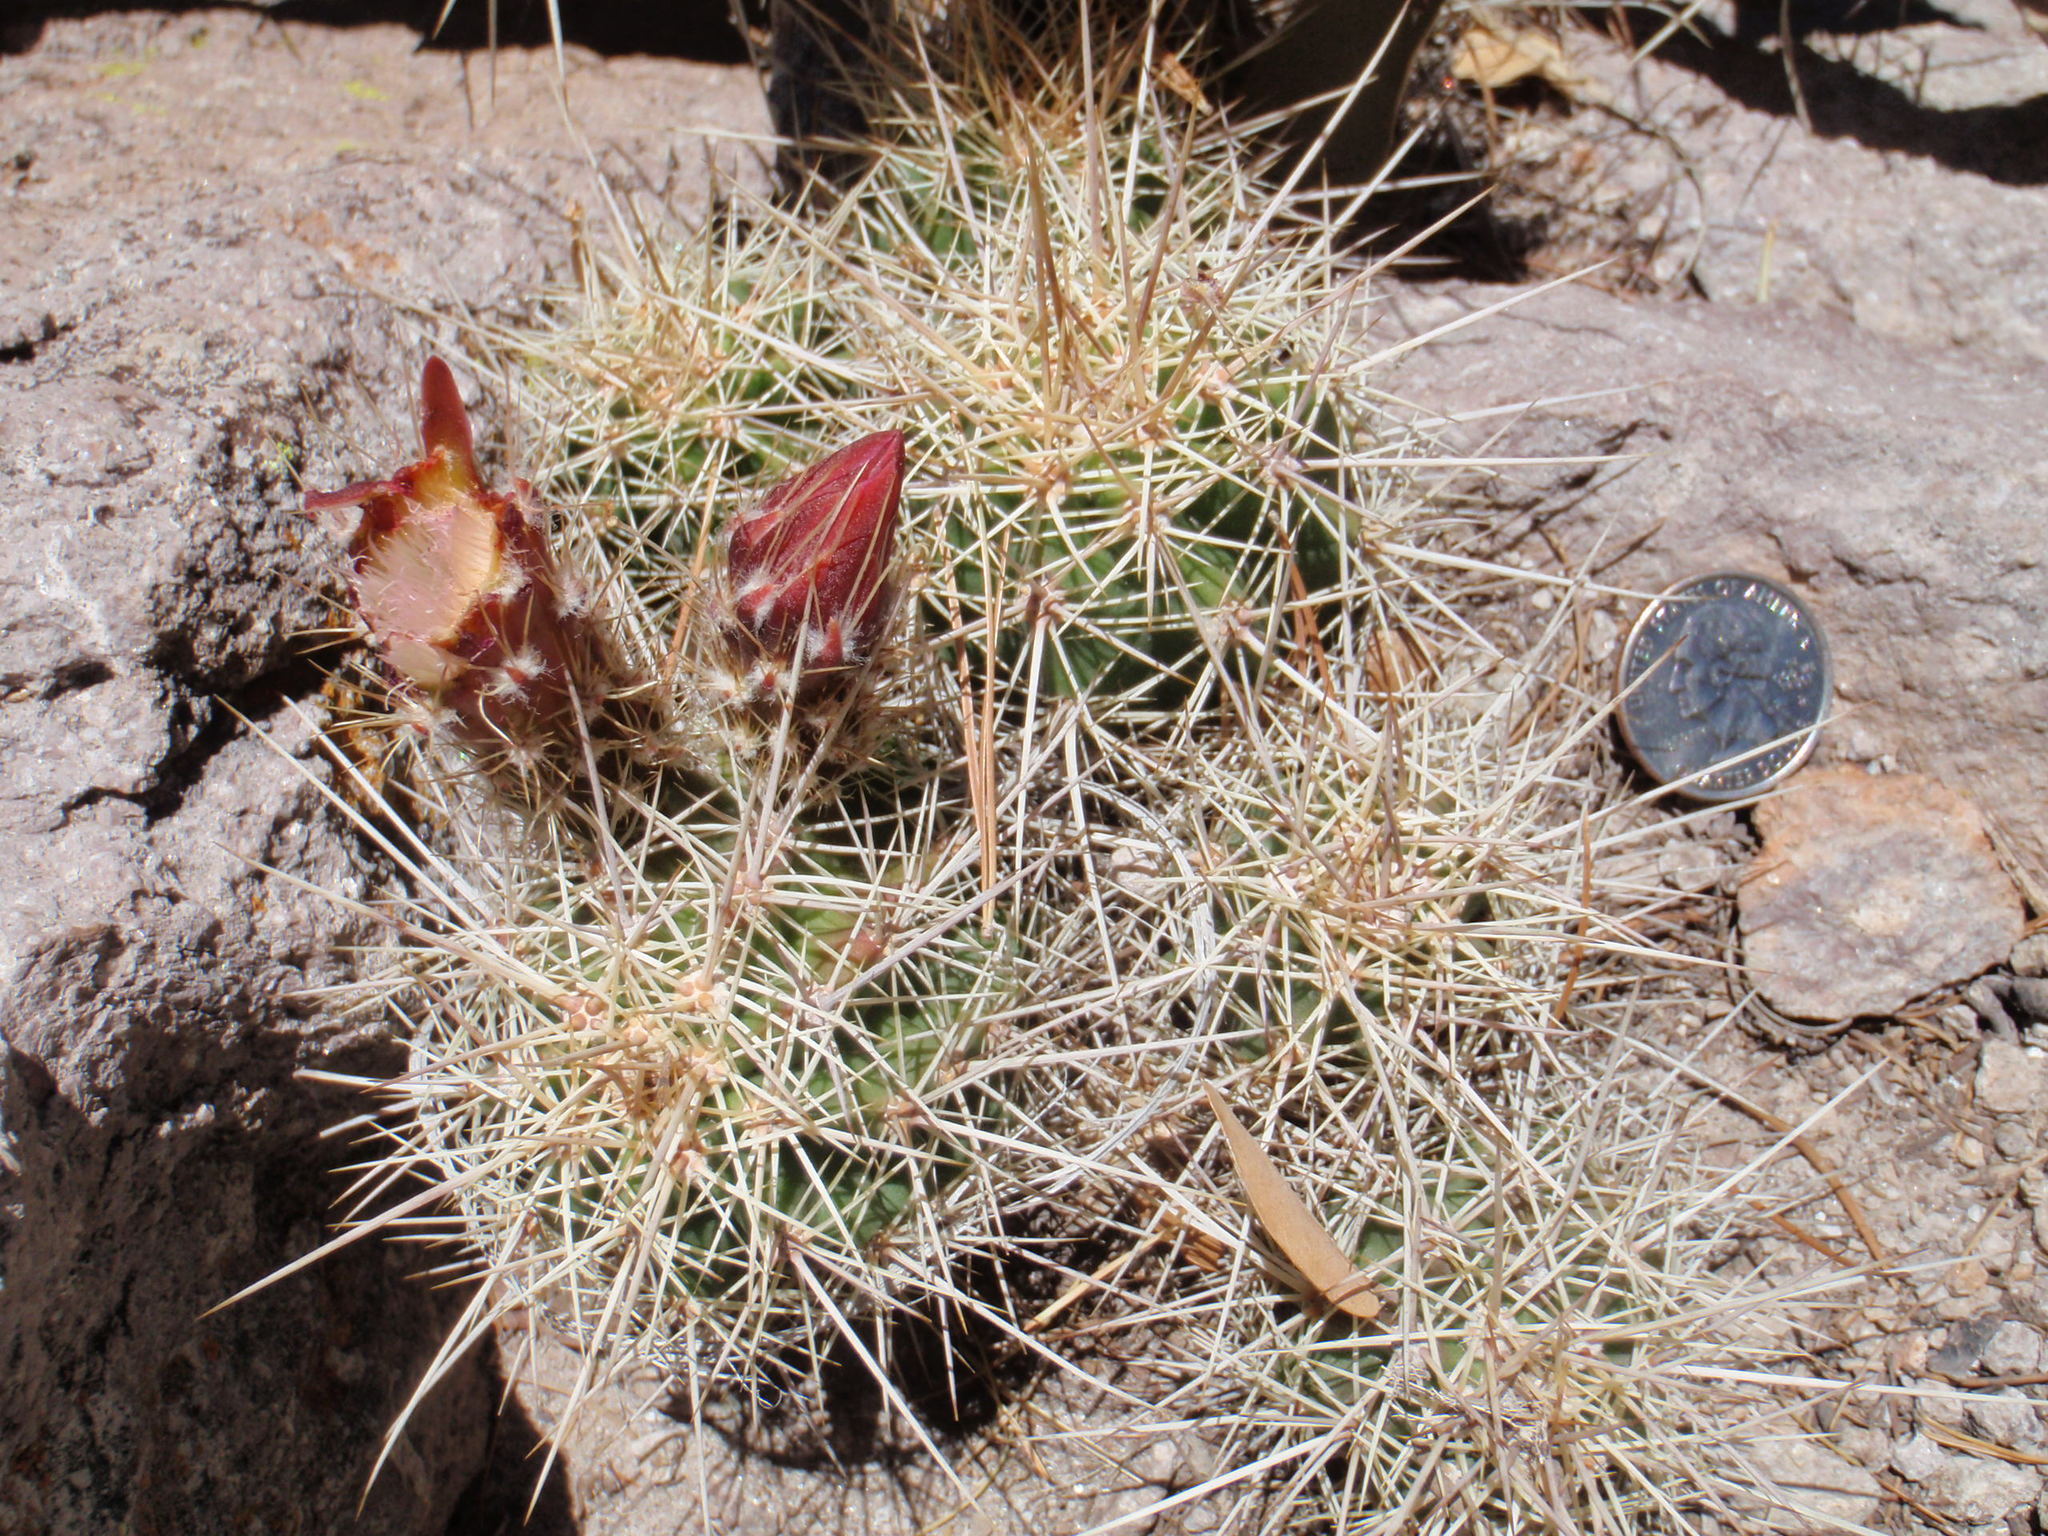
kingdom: Plantae
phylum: Tracheophyta
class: Magnoliopsida
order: Caryophyllales
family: Cactaceae
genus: Echinocereus
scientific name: Echinocereus coccineus
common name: Scarlet hedgehog cactus
